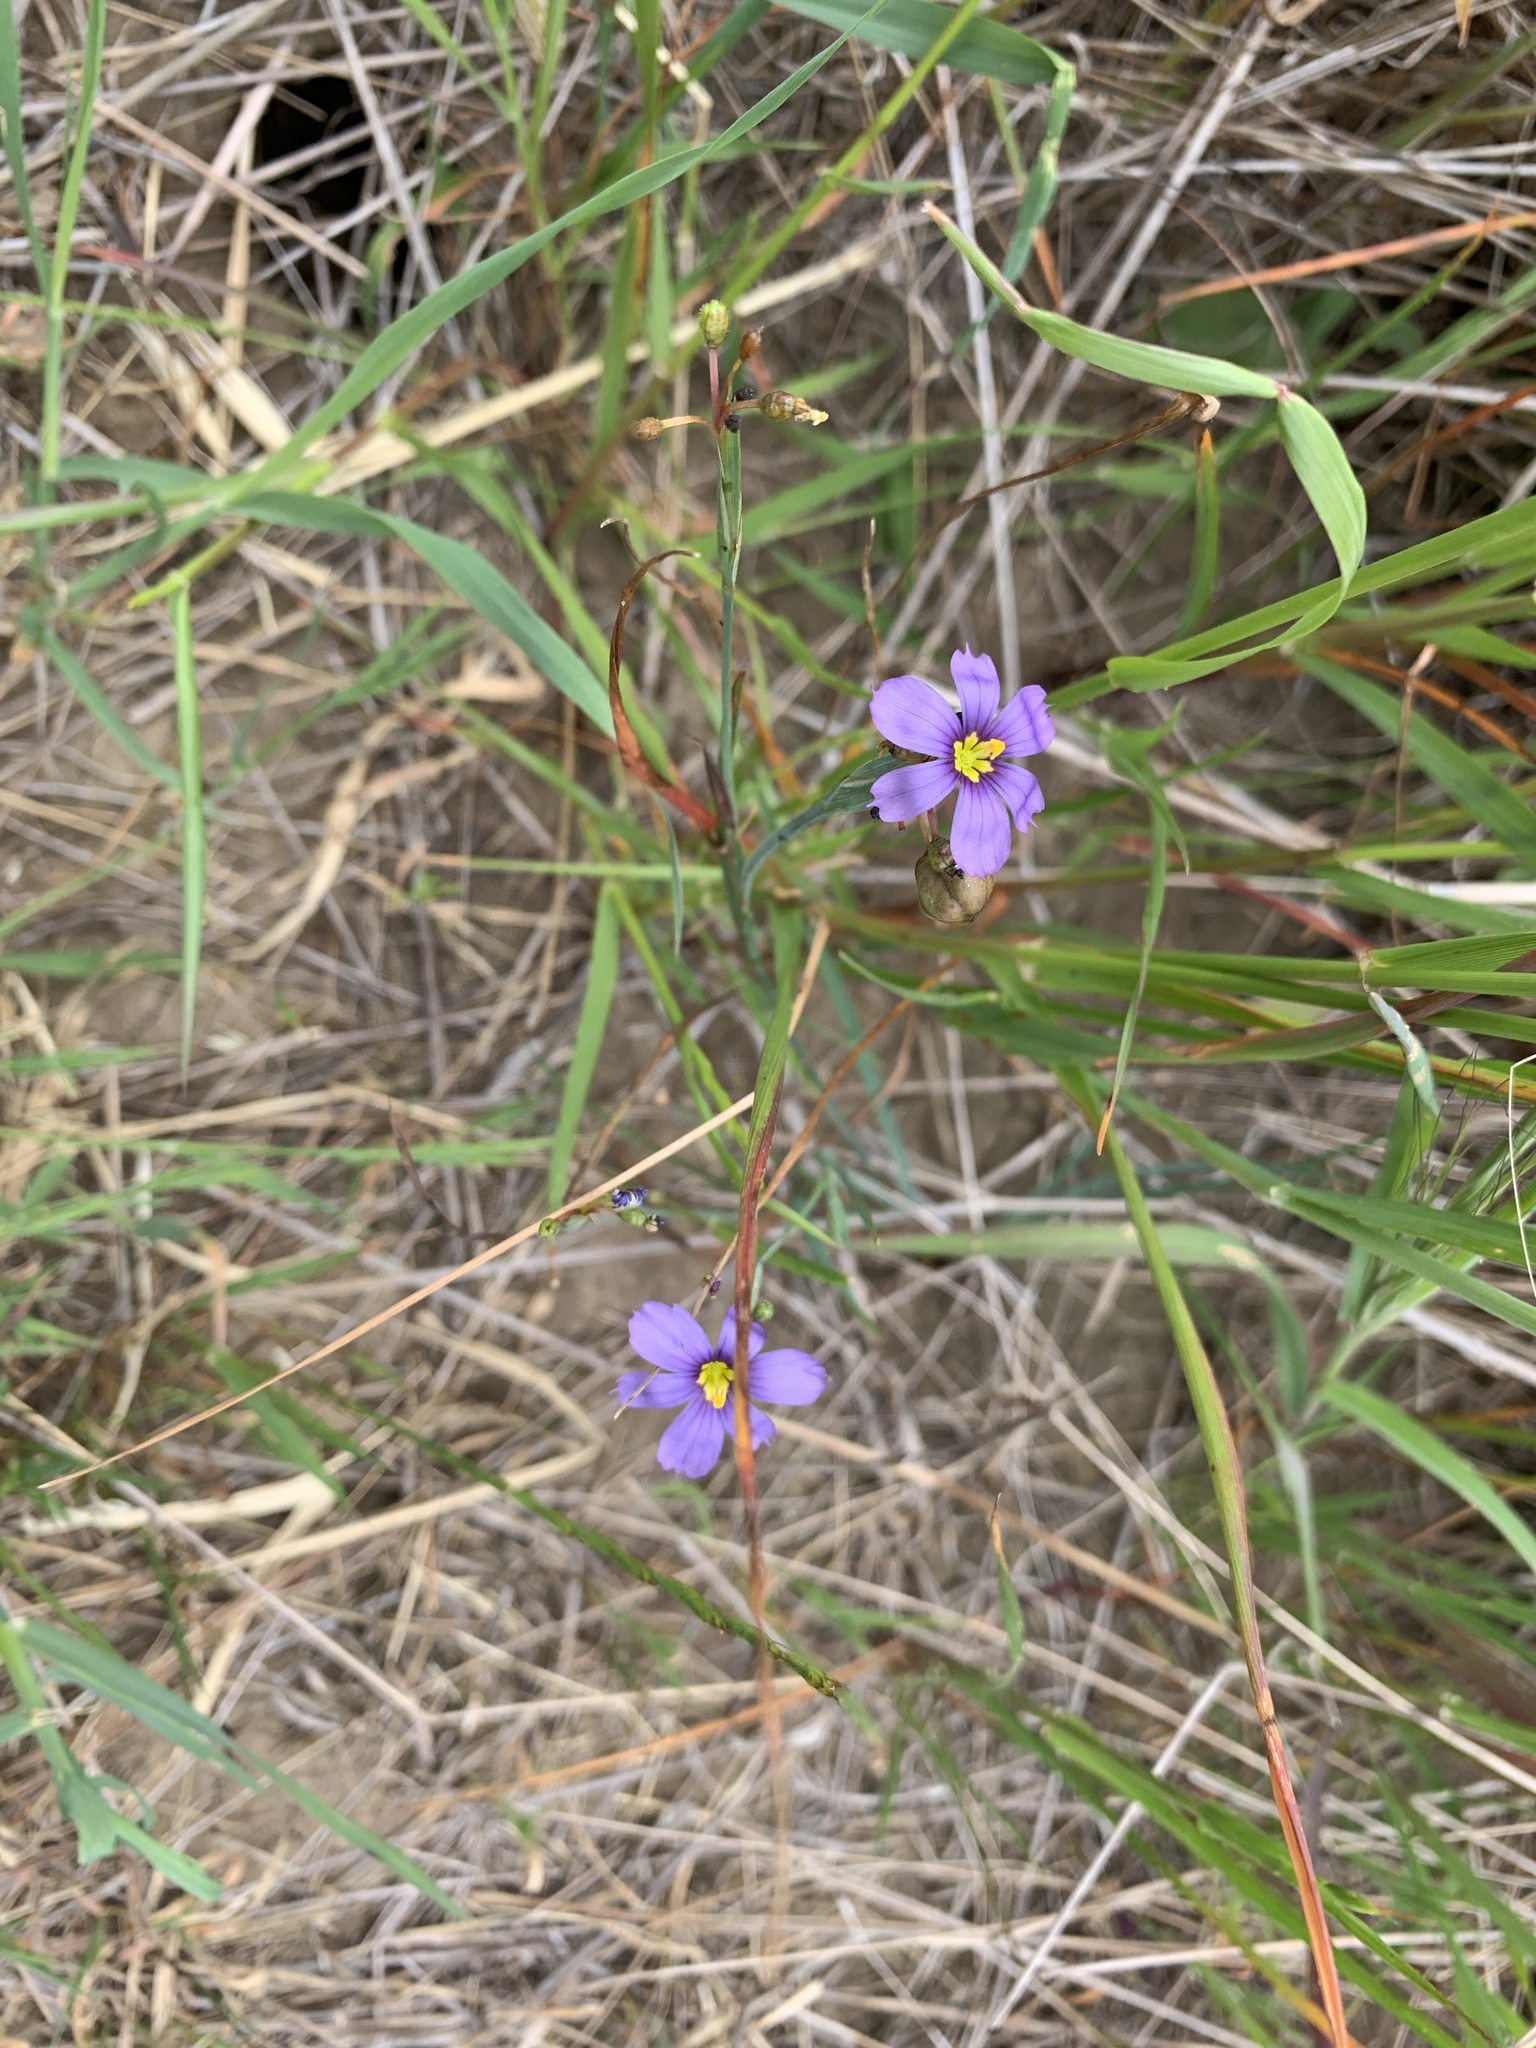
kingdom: Plantae
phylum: Tracheophyta
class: Liliopsida
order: Asparagales
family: Iridaceae
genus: Sisyrinchium
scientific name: Sisyrinchium bellum
